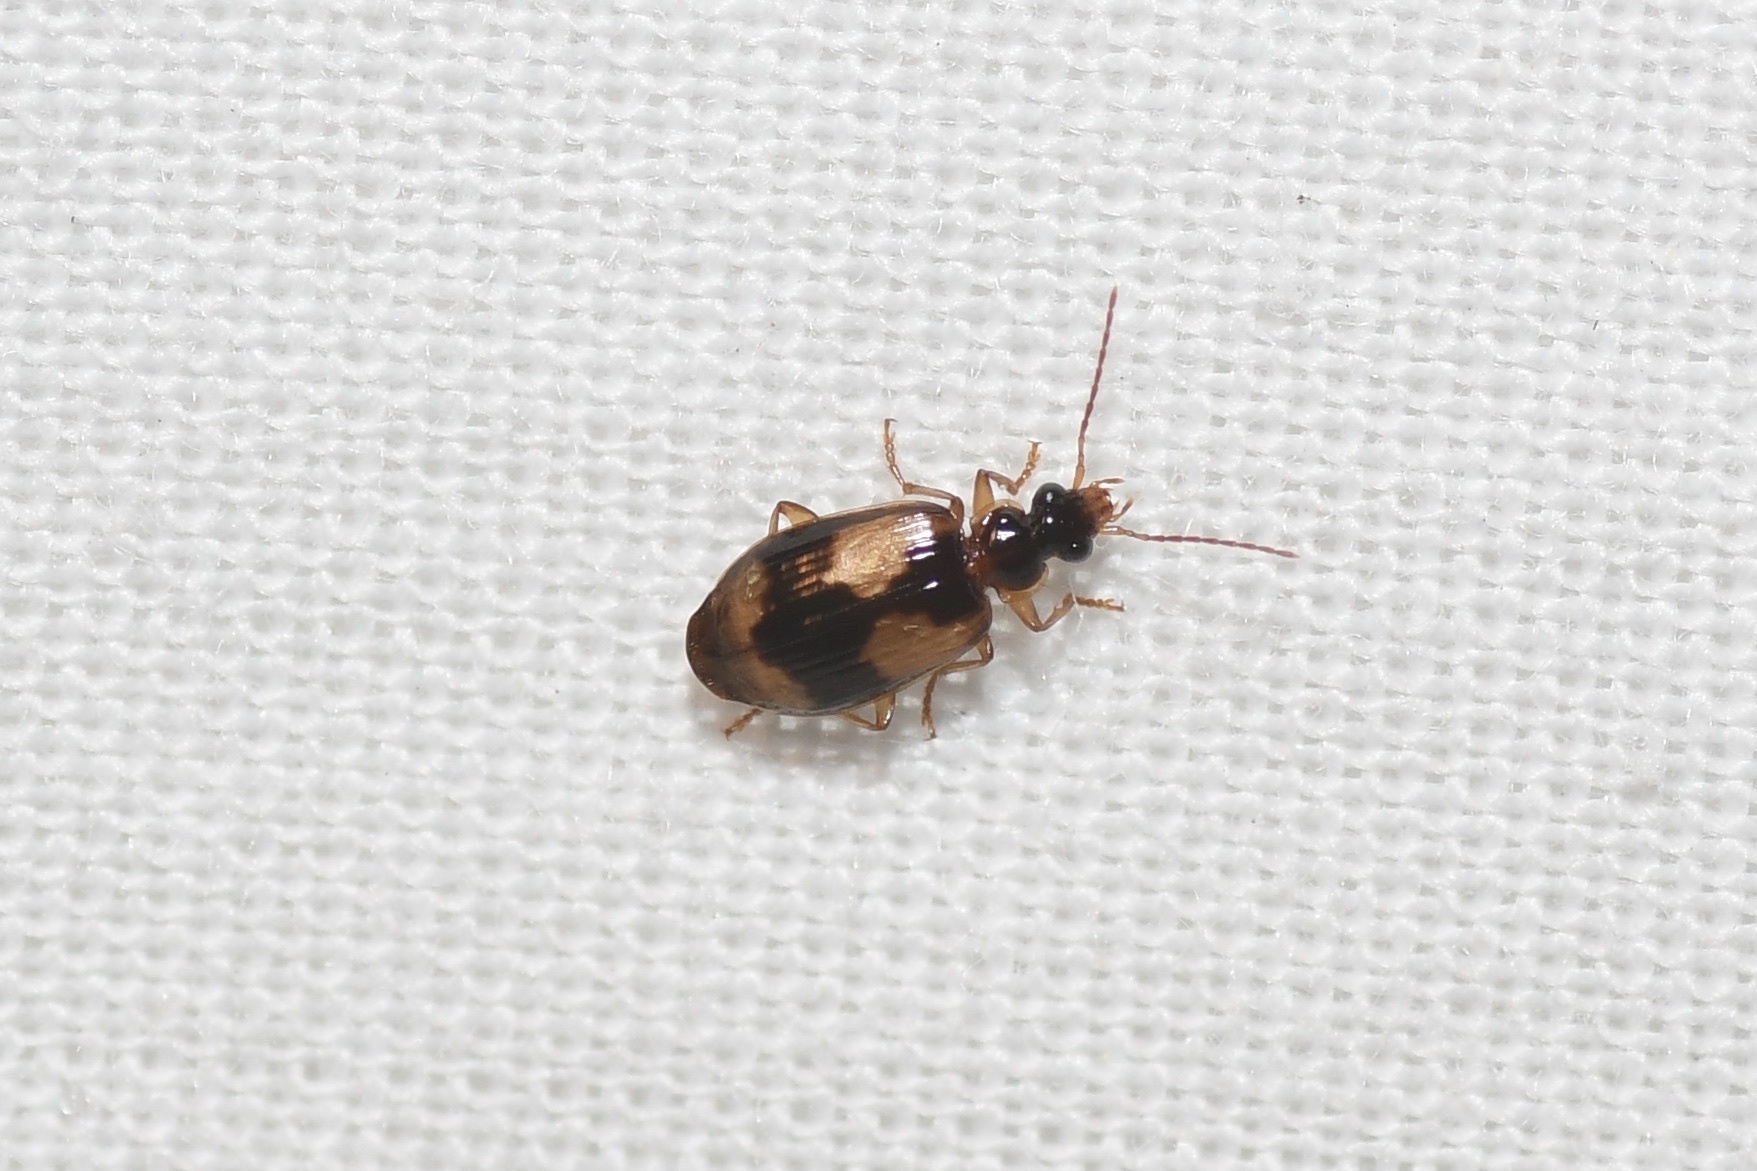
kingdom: Animalia
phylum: Arthropoda
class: Insecta
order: Coleoptera
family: Carabidae
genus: Lebia
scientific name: Lebia fuscata
